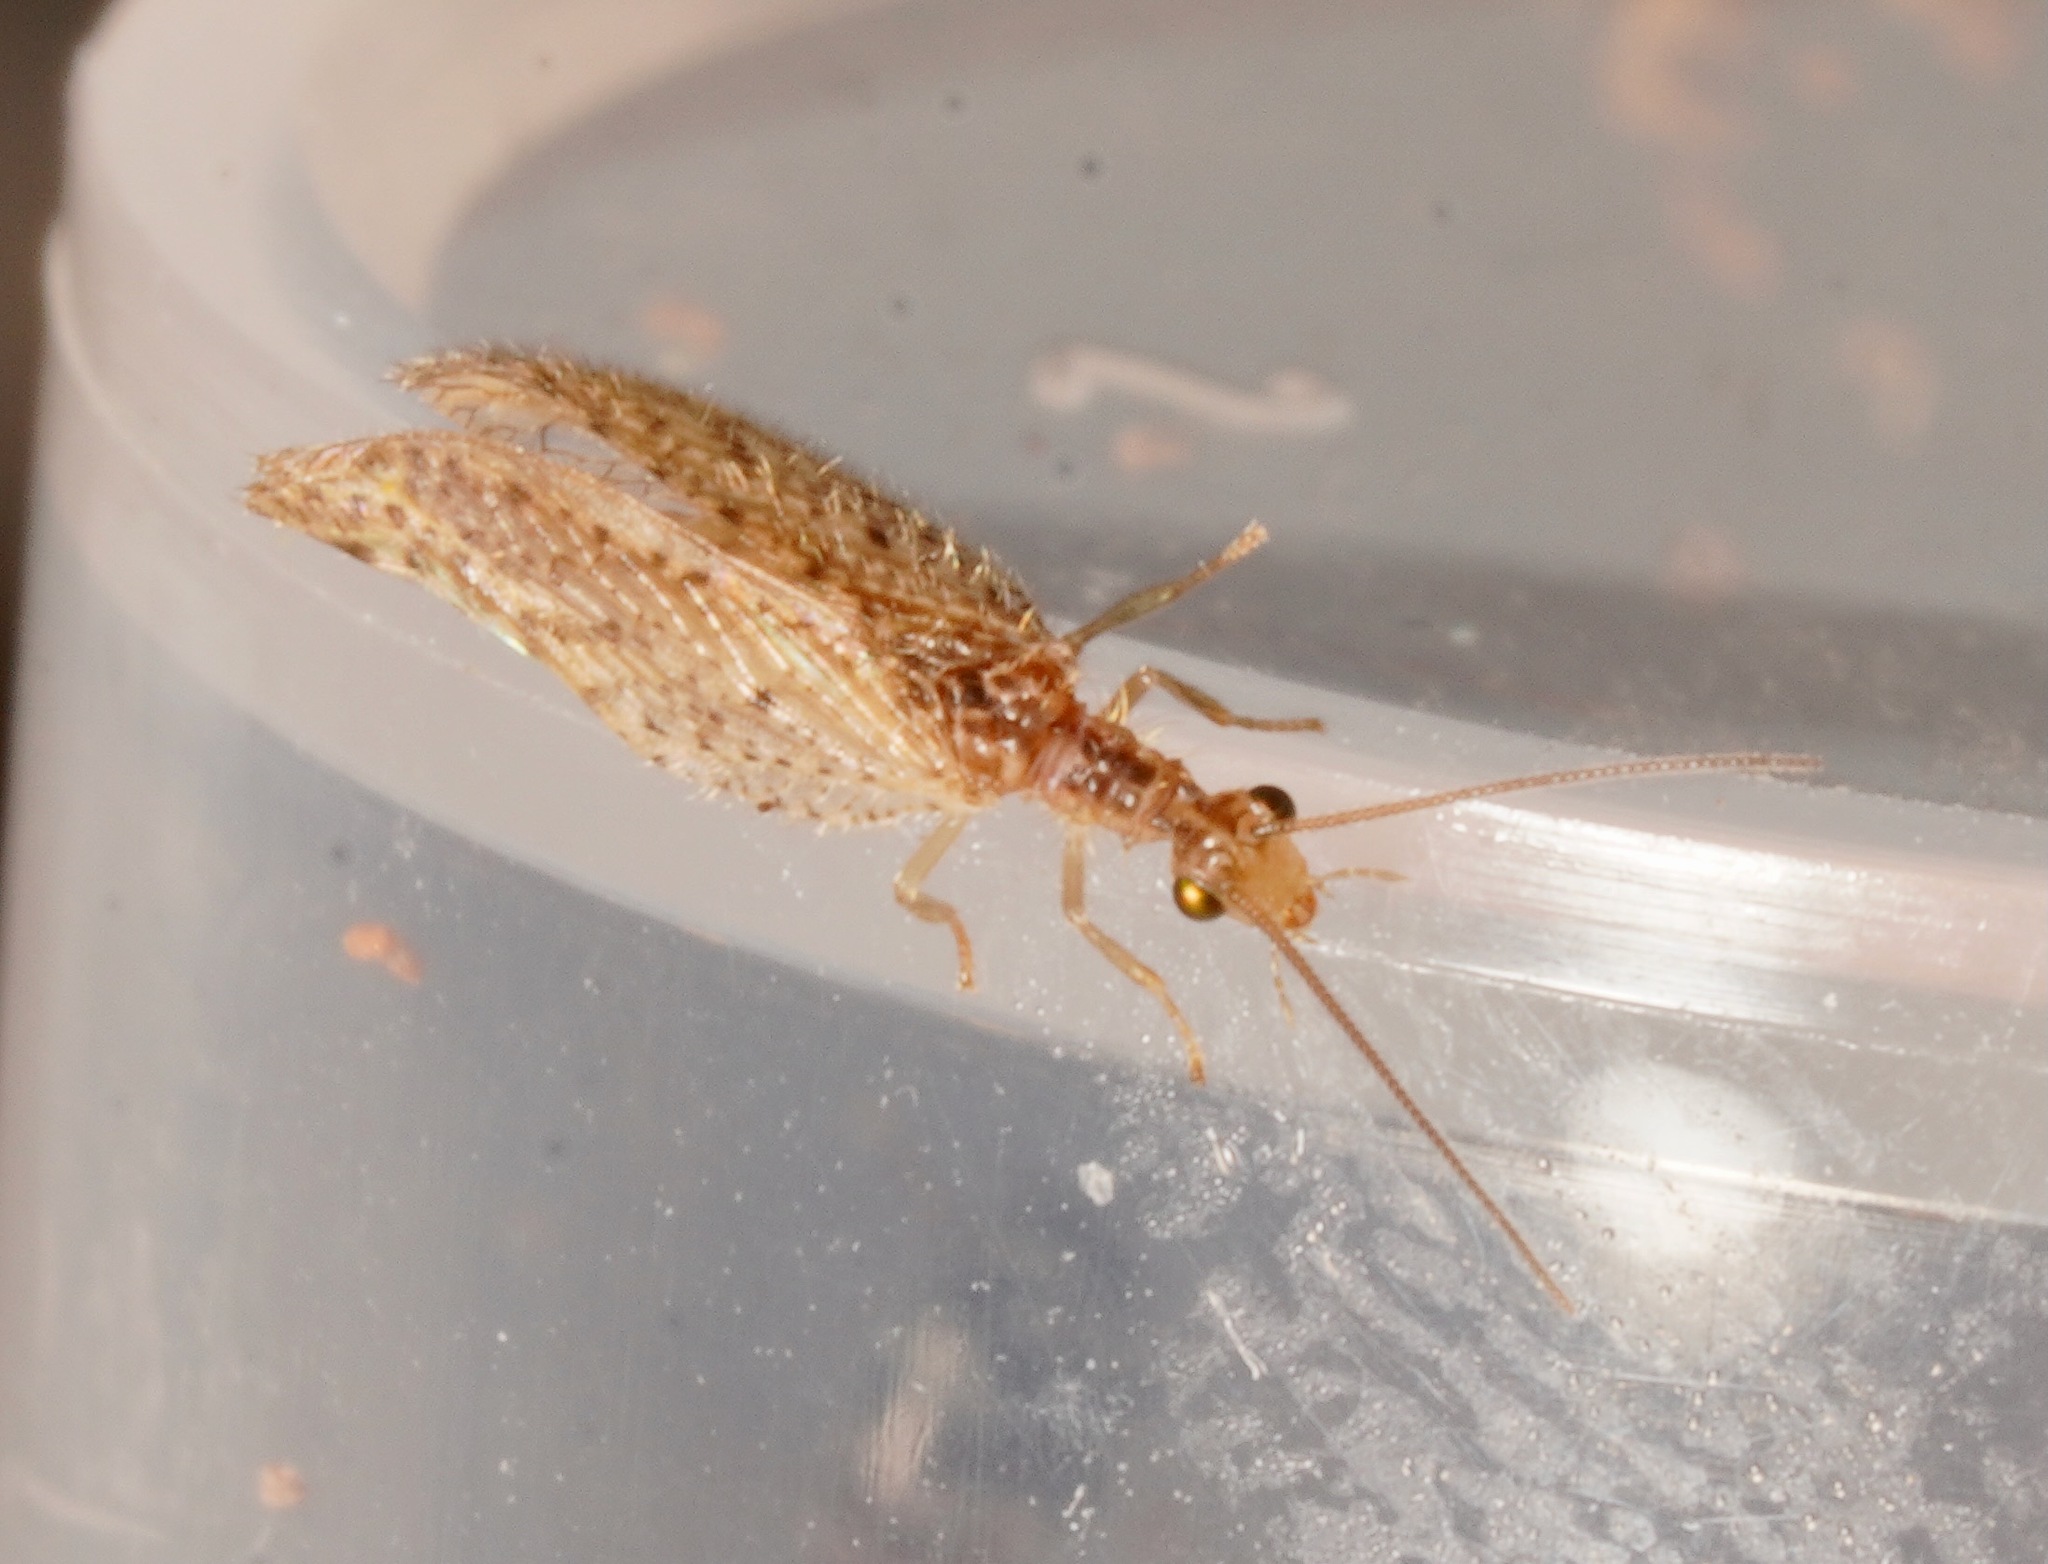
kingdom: Animalia
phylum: Arthropoda
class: Insecta
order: Neuroptera
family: Hemerobiidae
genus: Micromus
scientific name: Micromus tasmaniae
